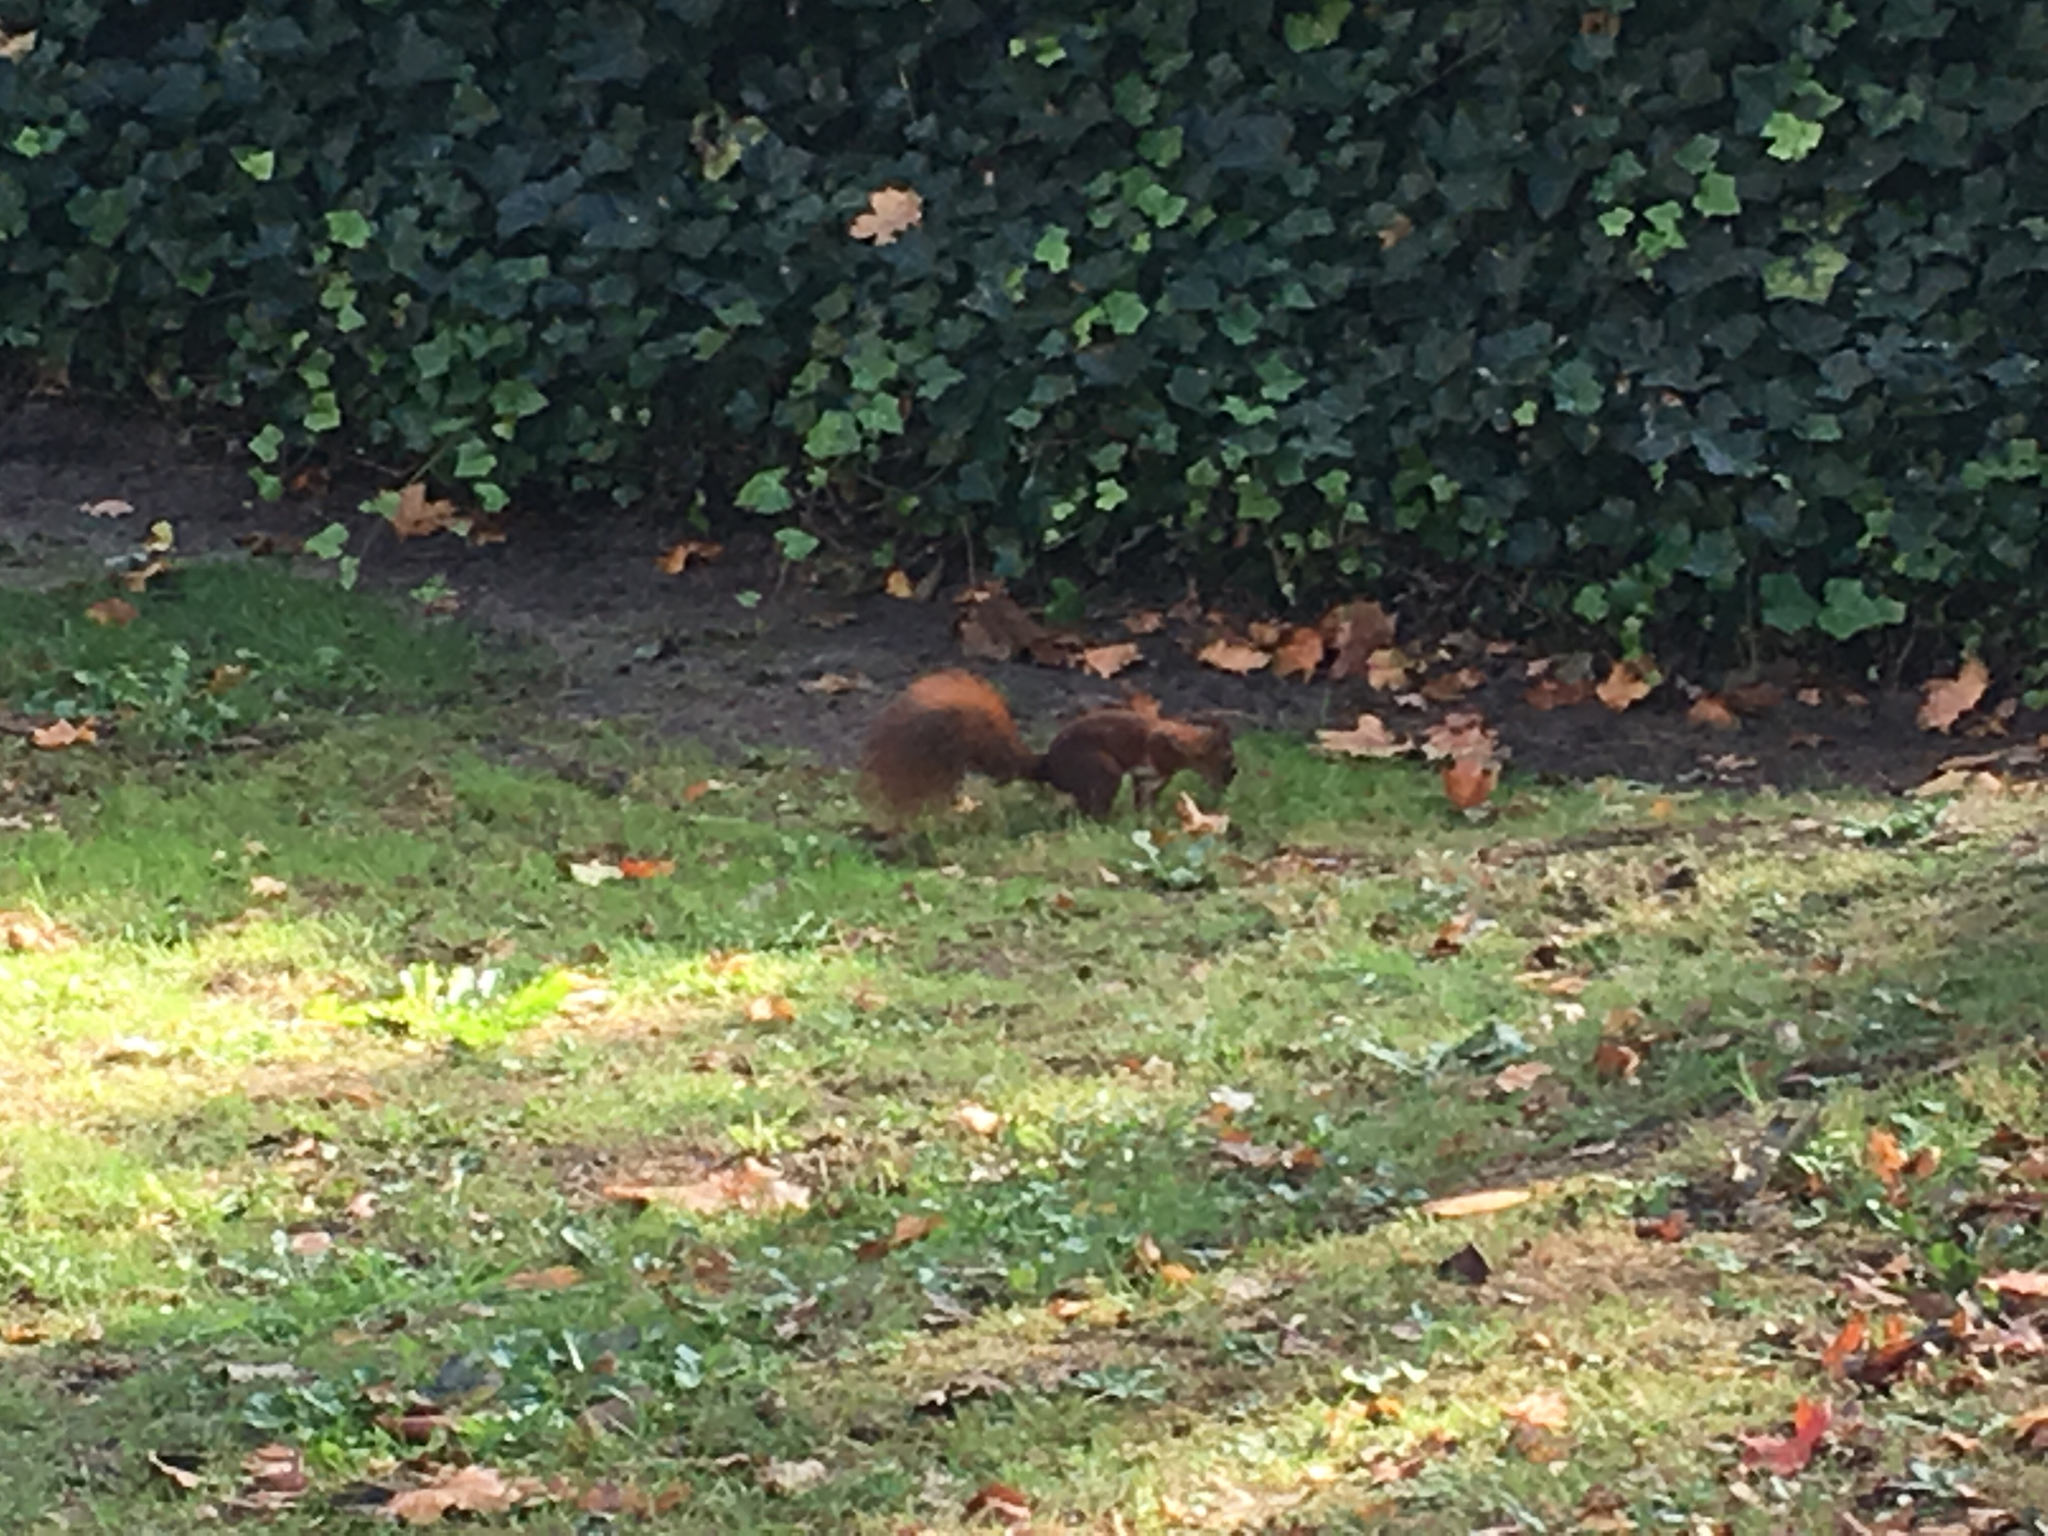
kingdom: Animalia
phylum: Chordata
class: Mammalia
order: Rodentia
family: Sciuridae
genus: Sciurus
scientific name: Sciurus vulgaris
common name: Eurasian red squirrel
